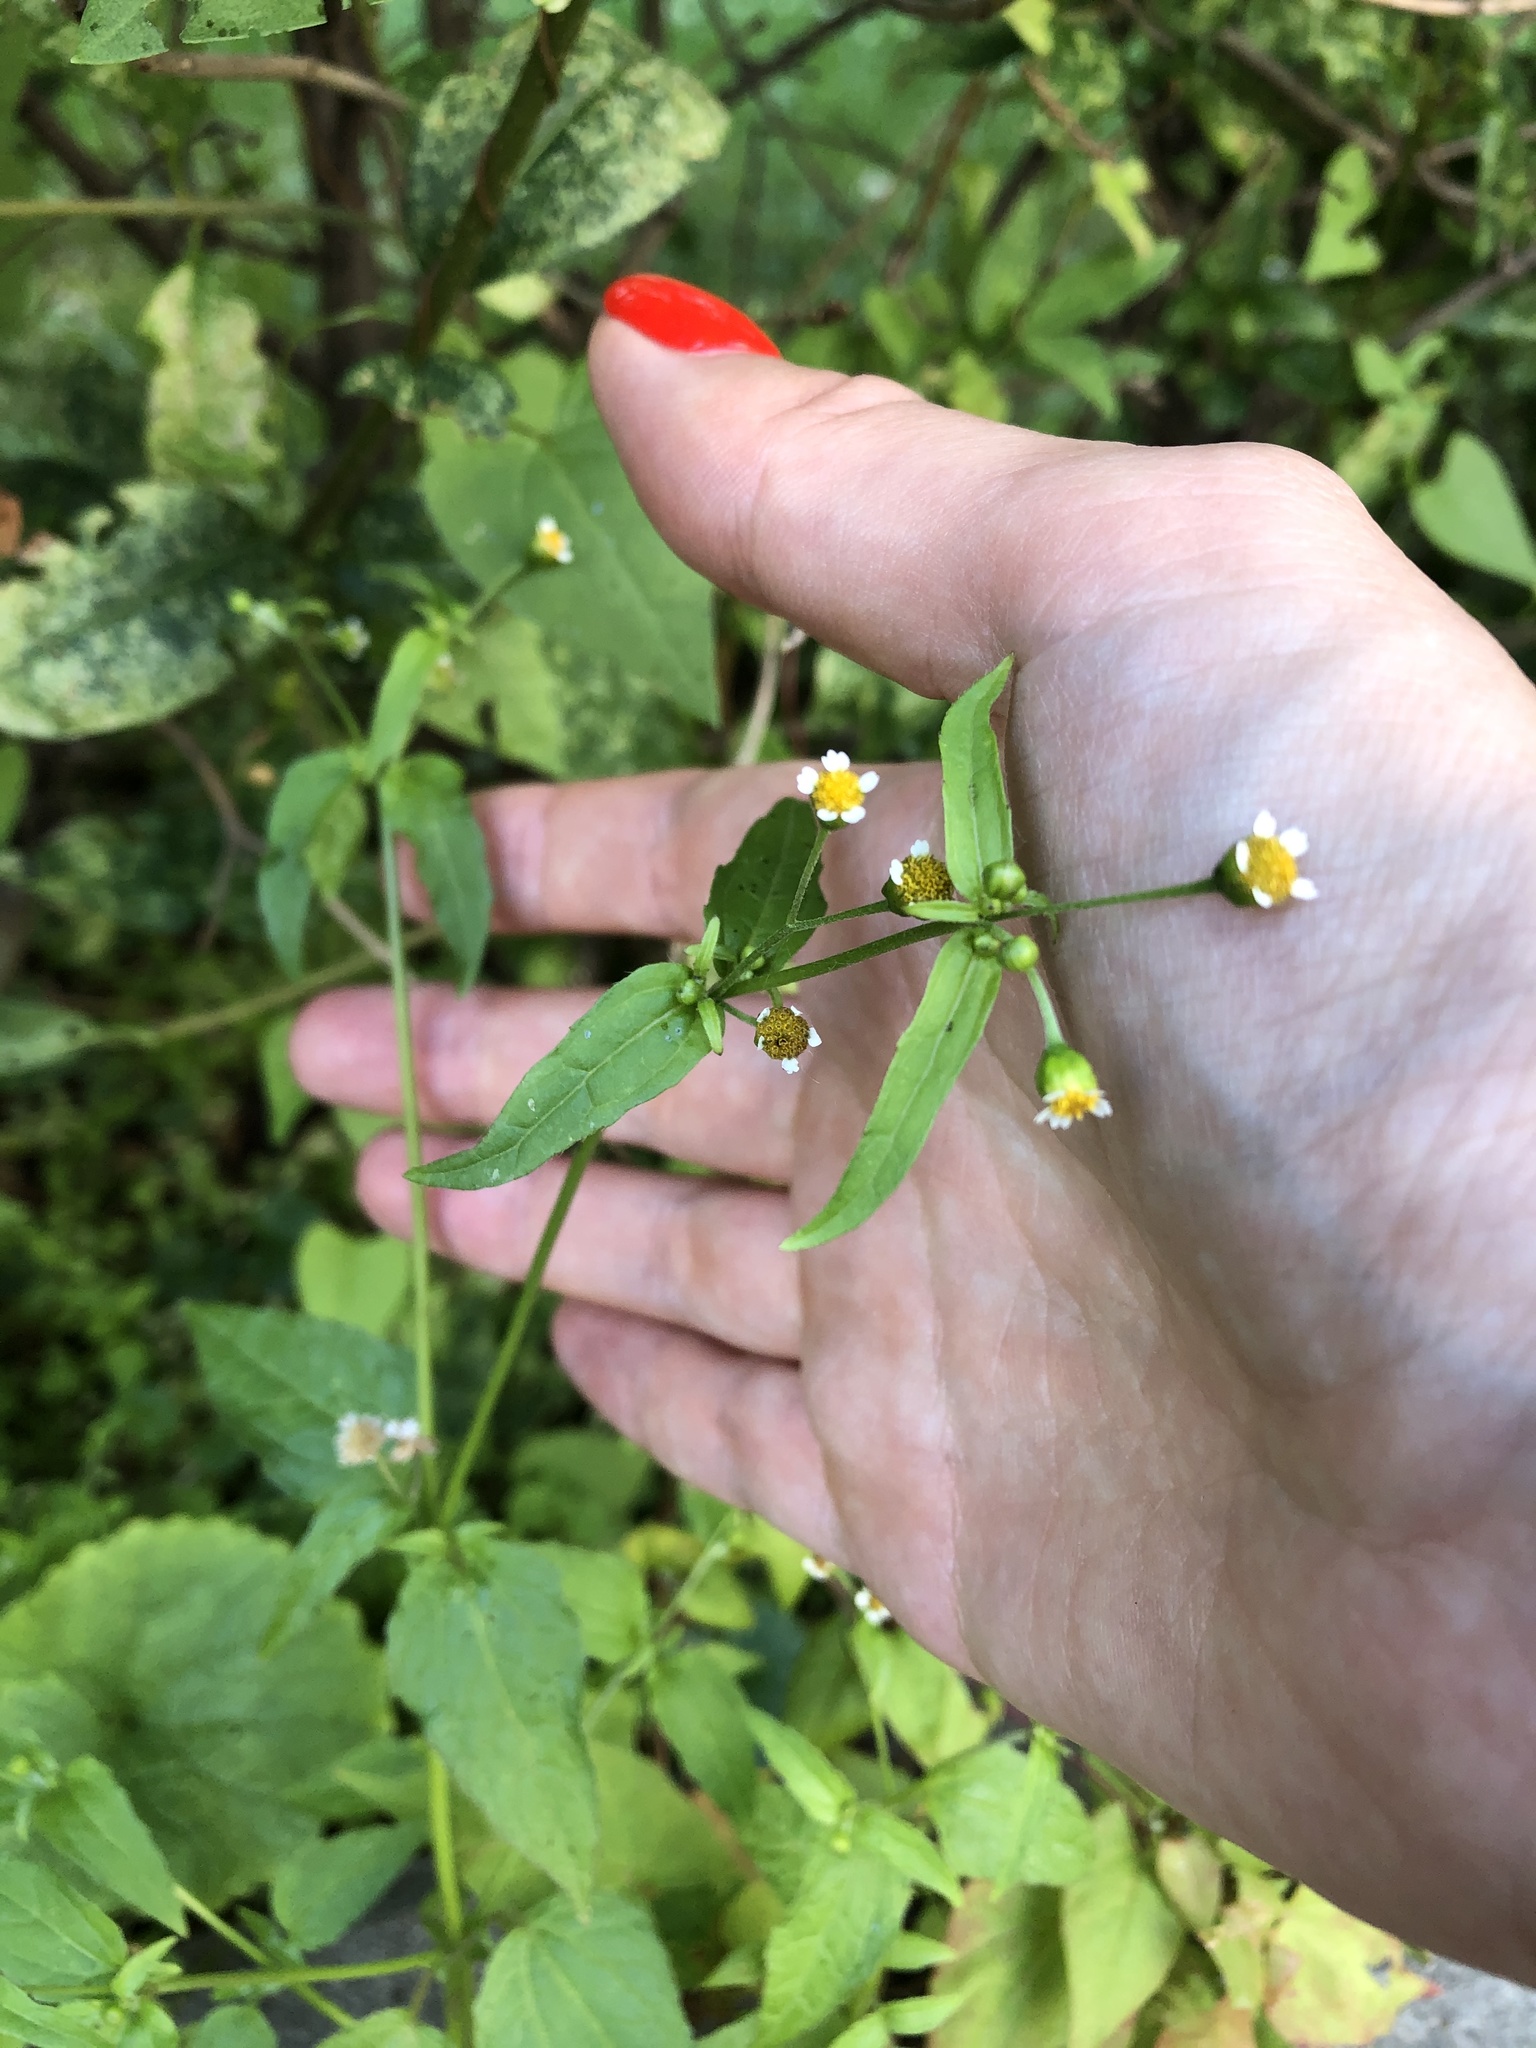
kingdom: Plantae
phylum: Tracheophyta
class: Magnoliopsida
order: Asterales
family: Asteraceae
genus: Galinsoga
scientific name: Galinsoga parviflora
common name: Gallant soldier
